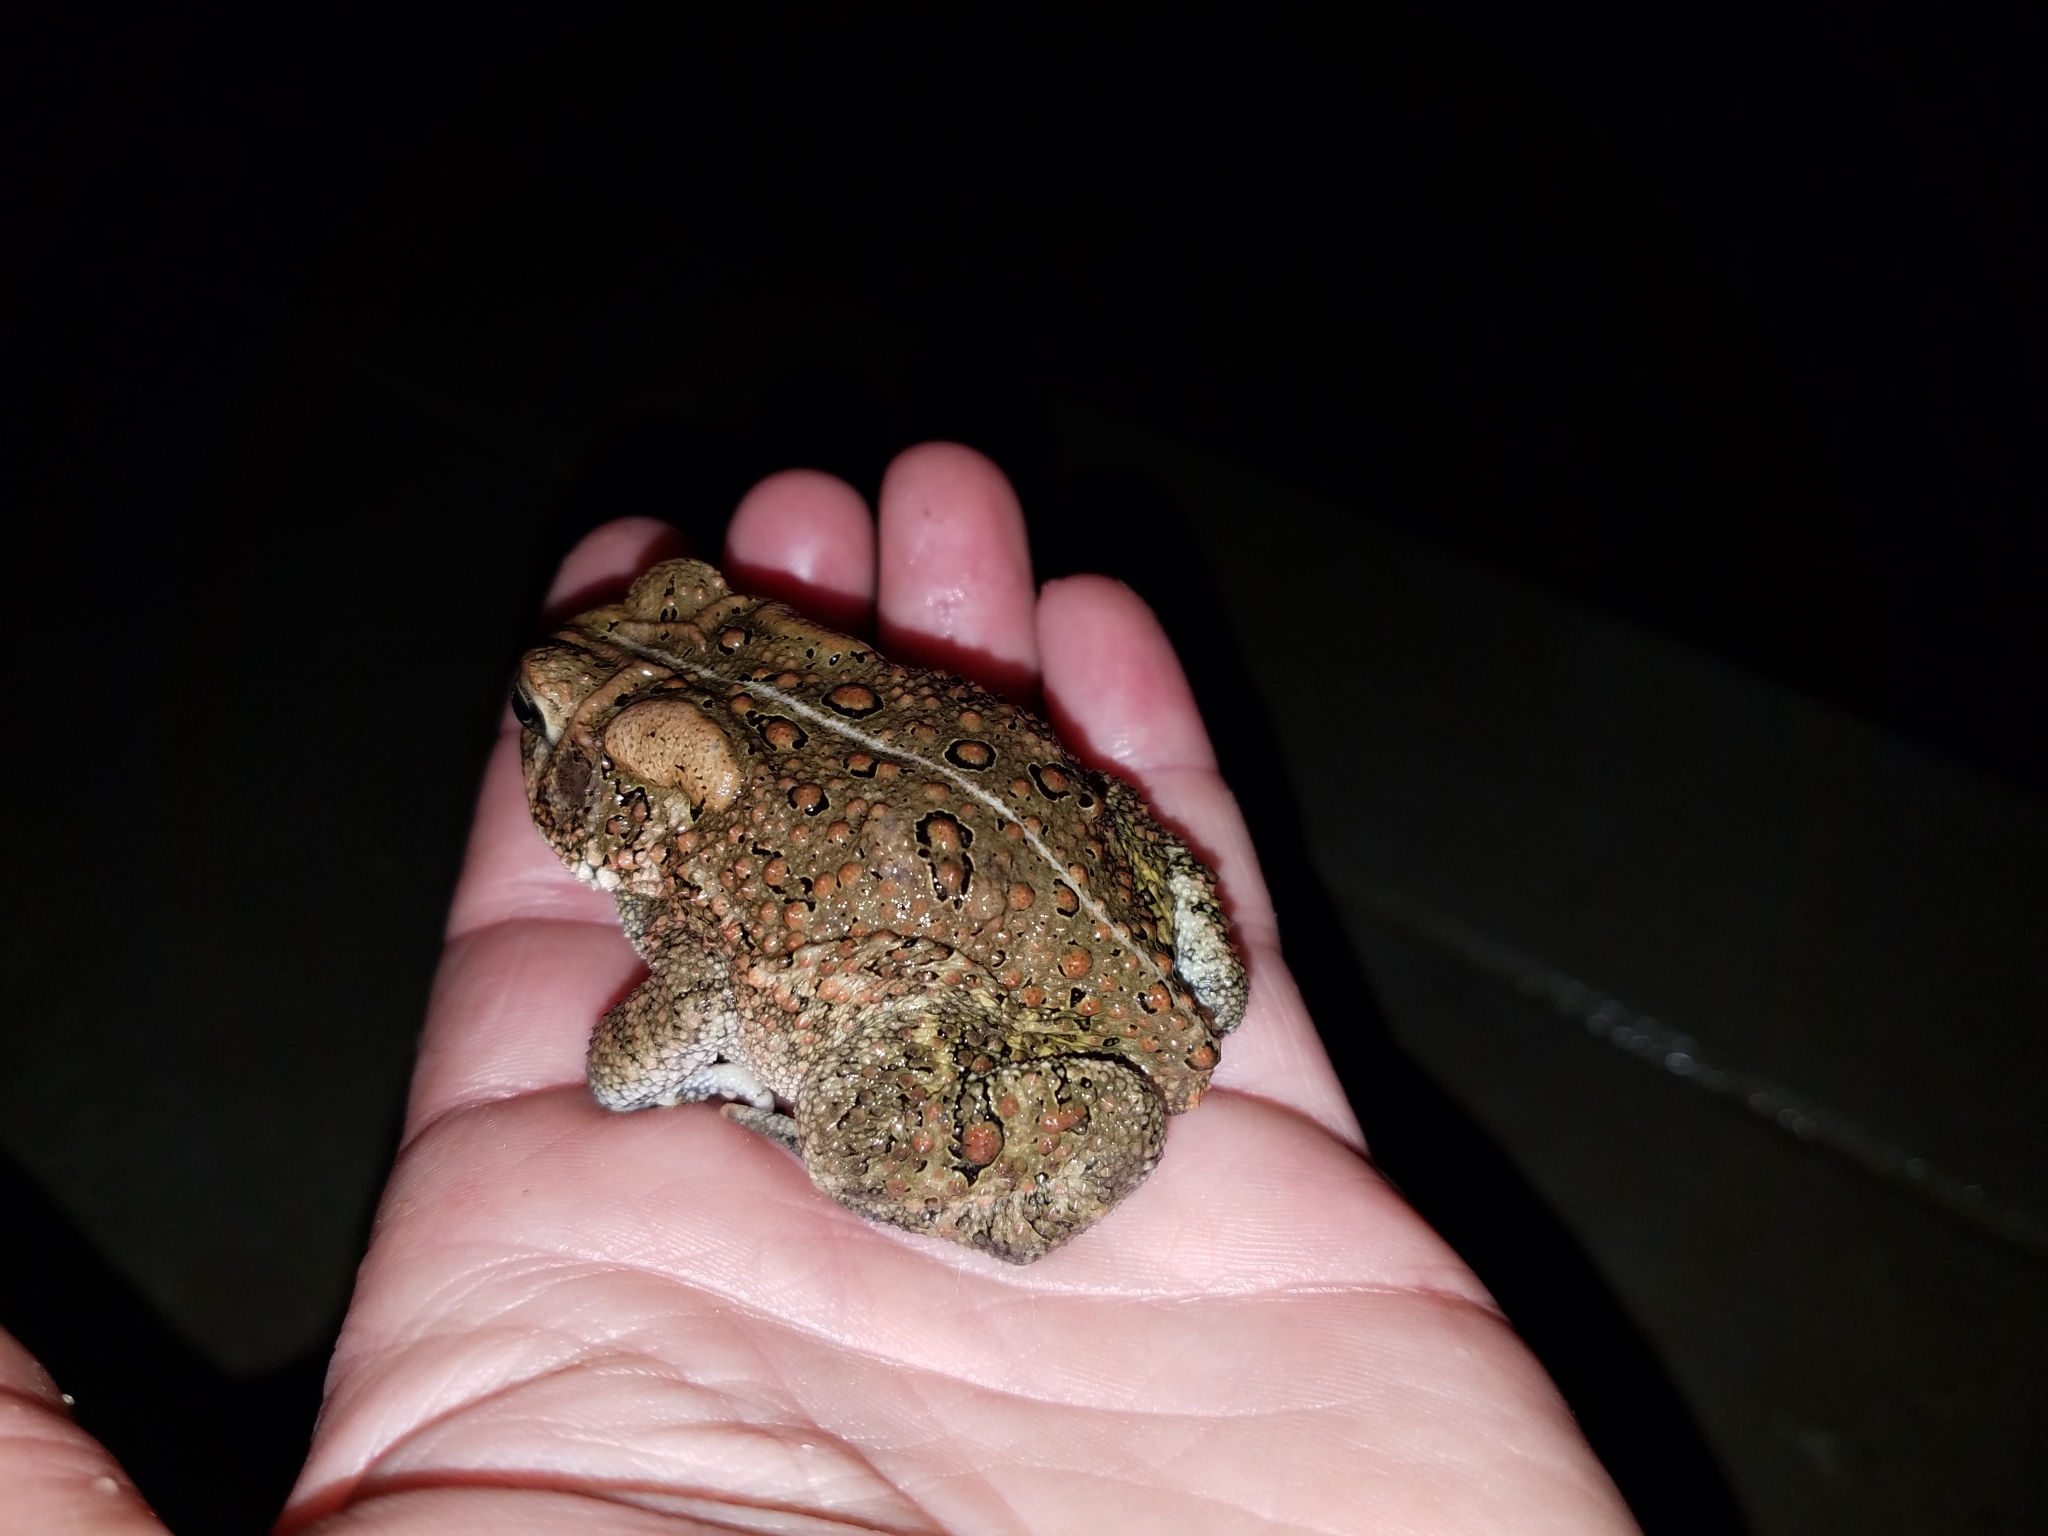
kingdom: Animalia
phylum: Chordata
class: Amphibia
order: Anura
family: Bufonidae
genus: Anaxyrus
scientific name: Anaxyrus americanus
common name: American toad
